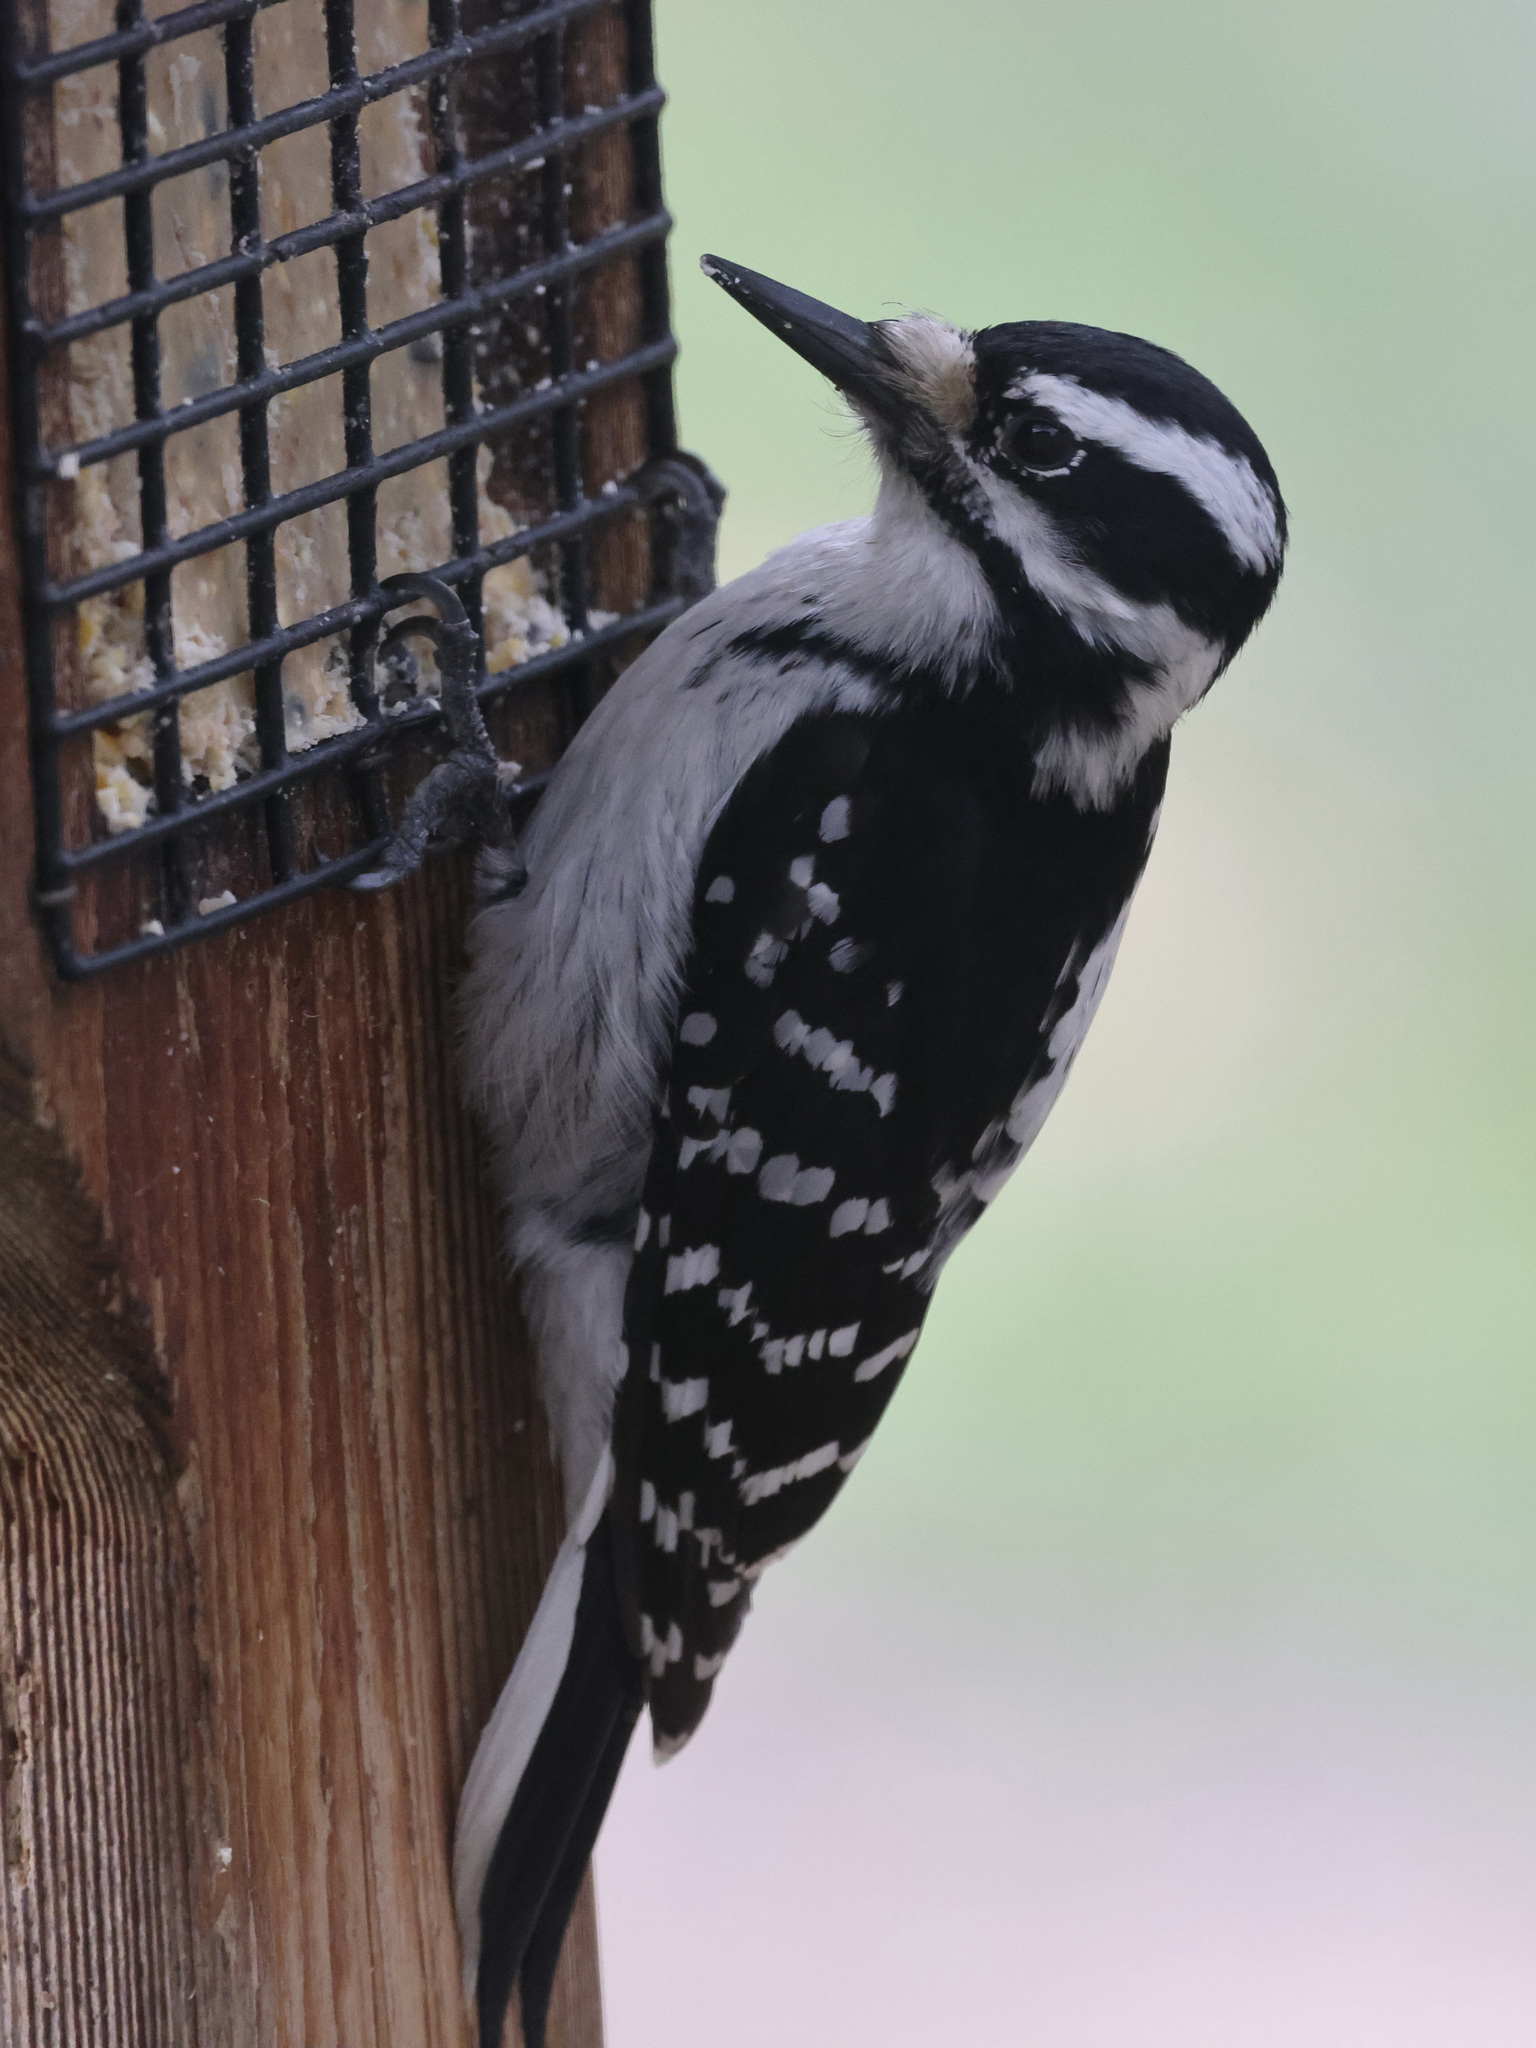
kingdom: Animalia
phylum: Chordata
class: Aves
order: Piciformes
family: Picidae
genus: Leuconotopicus
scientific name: Leuconotopicus villosus
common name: Hairy woodpecker
